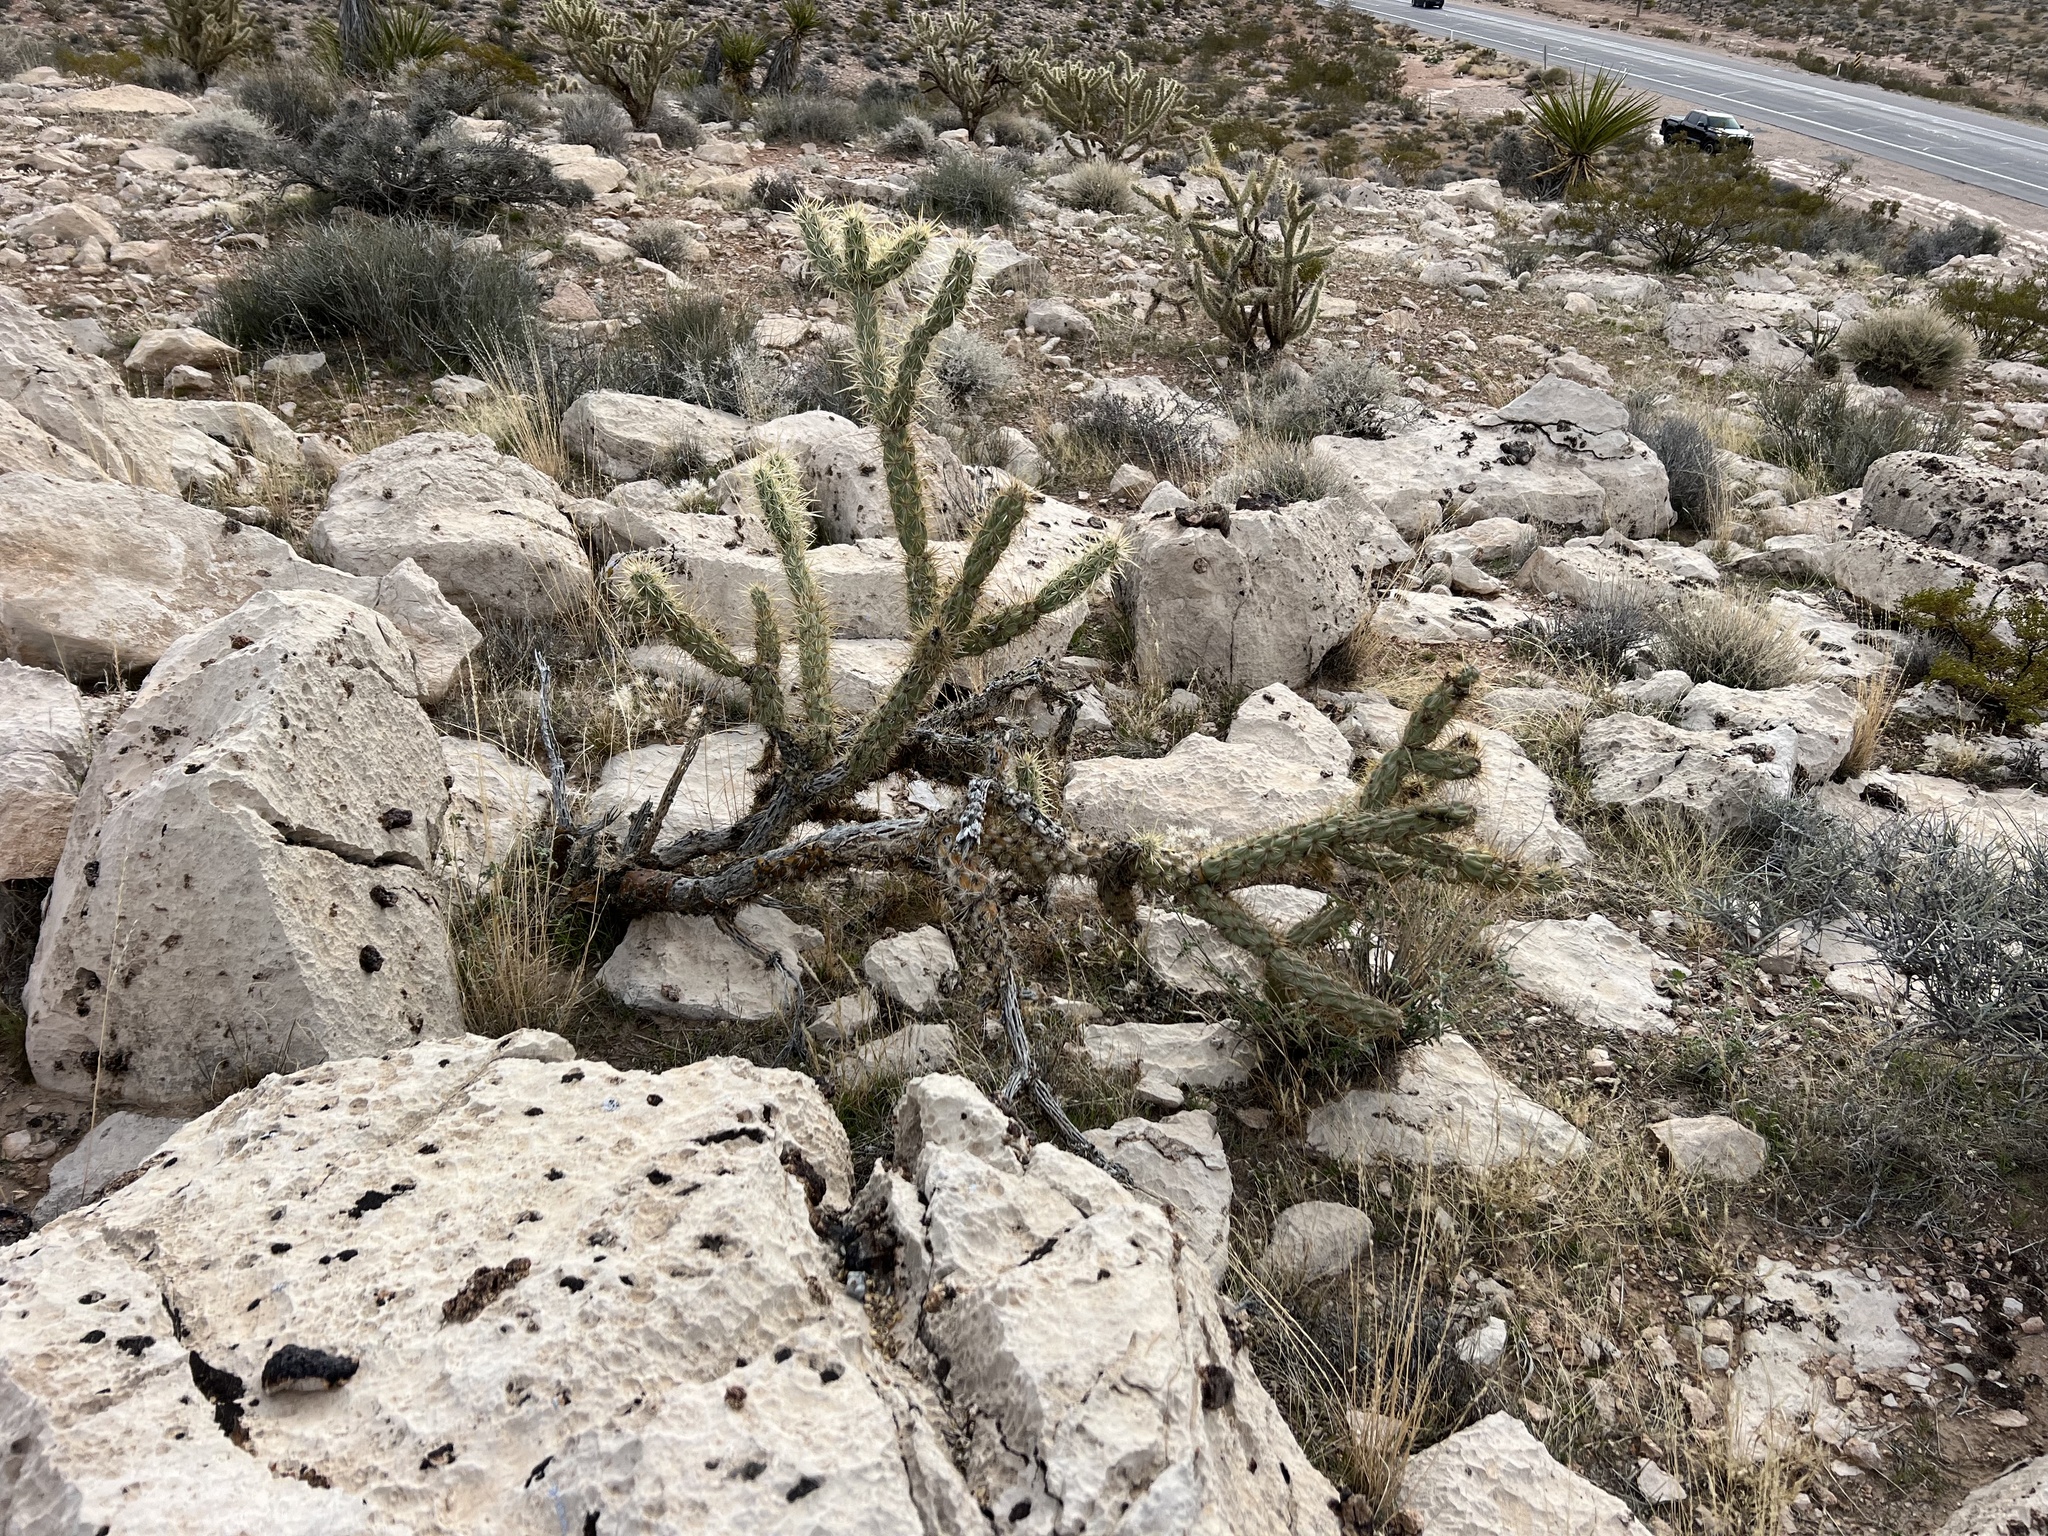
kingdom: Plantae
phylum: Tracheophyta
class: Magnoliopsida
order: Caryophyllales
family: Cactaceae
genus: Cylindropuntia
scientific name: Cylindropuntia acanthocarpa
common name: Buckhorn cholla
